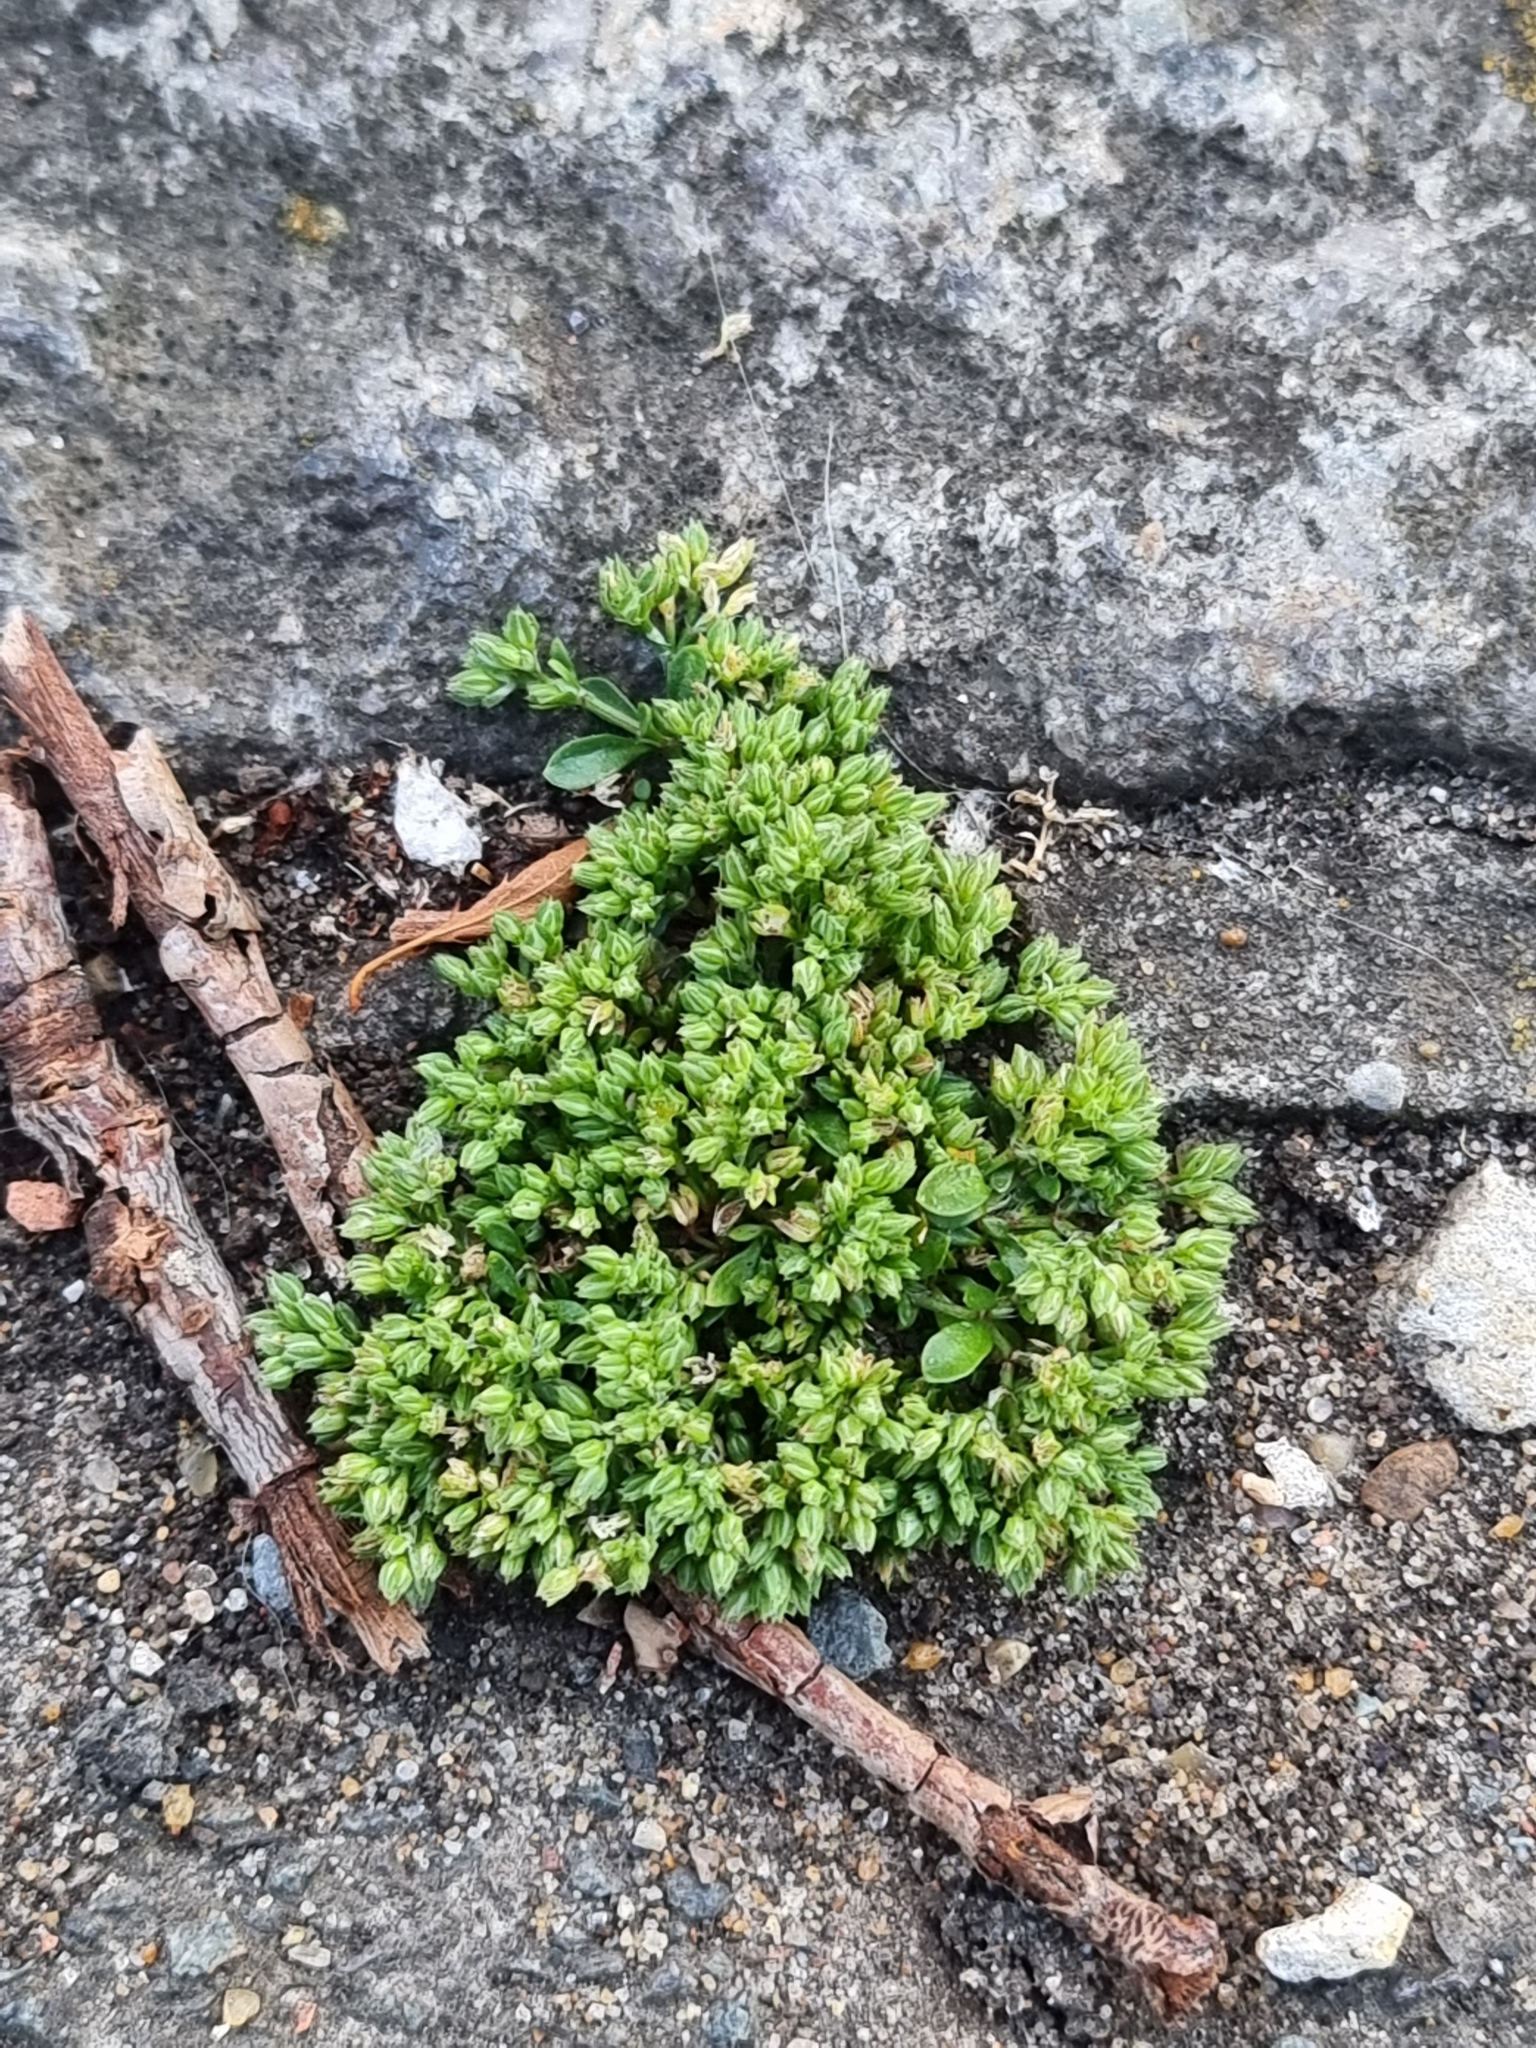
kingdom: Plantae
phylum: Tracheophyta
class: Magnoliopsida
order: Caryophyllales
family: Caryophyllaceae
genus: Polycarpon
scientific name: Polycarpon tetraphyllum
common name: Four-leaved all-seed
